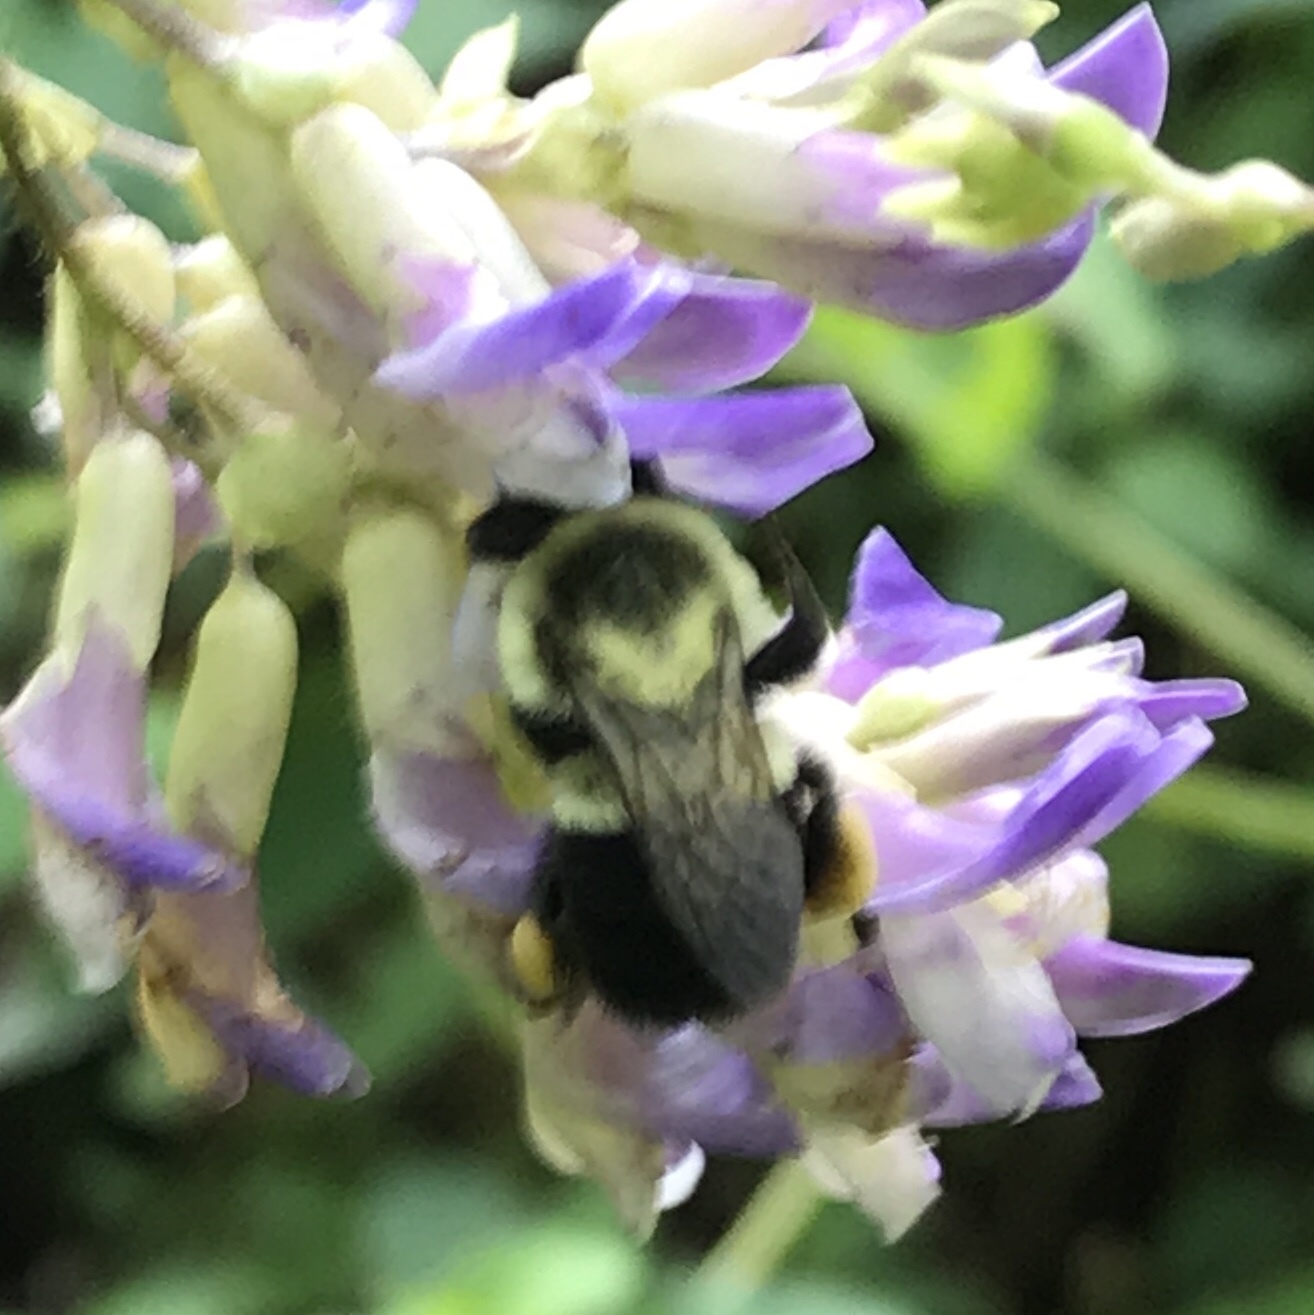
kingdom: Animalia
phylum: Arthropoda
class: Insecta
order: Hymenoptera
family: Apidae
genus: Bombus
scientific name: Bombus impatiens
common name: Common eastern bumble bee
